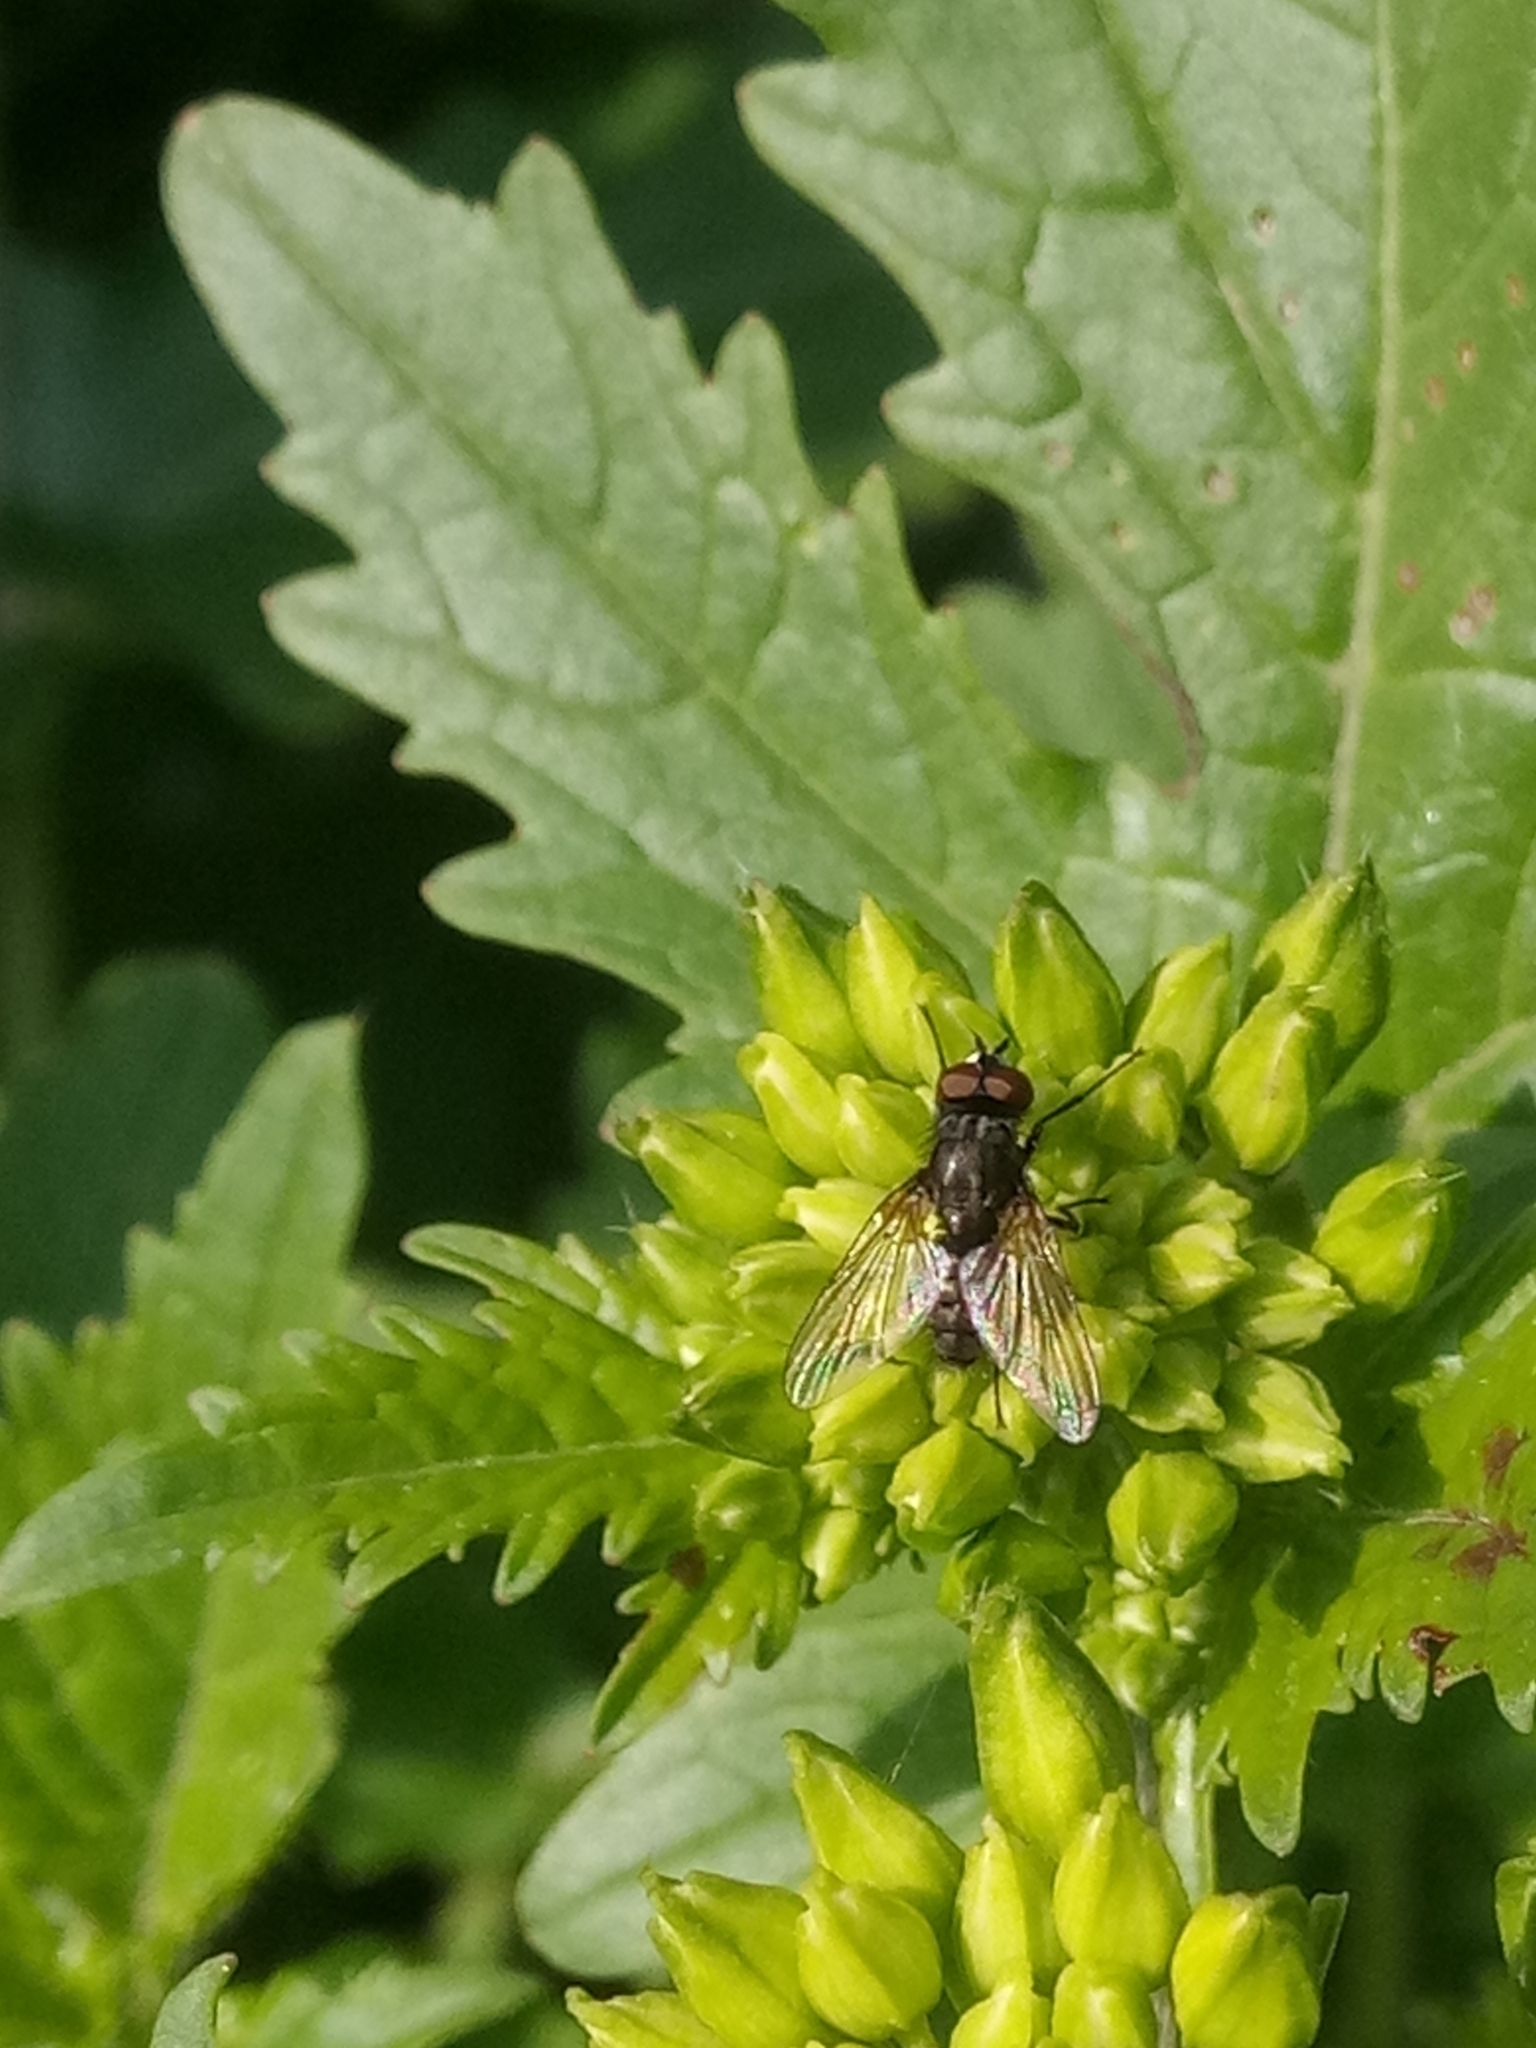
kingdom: Plantae
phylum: Tracheophyta
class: Magnoliopsida
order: Brassicales
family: Brassicaceae
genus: Sinapis
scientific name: Sinapis alba
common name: White mustard
